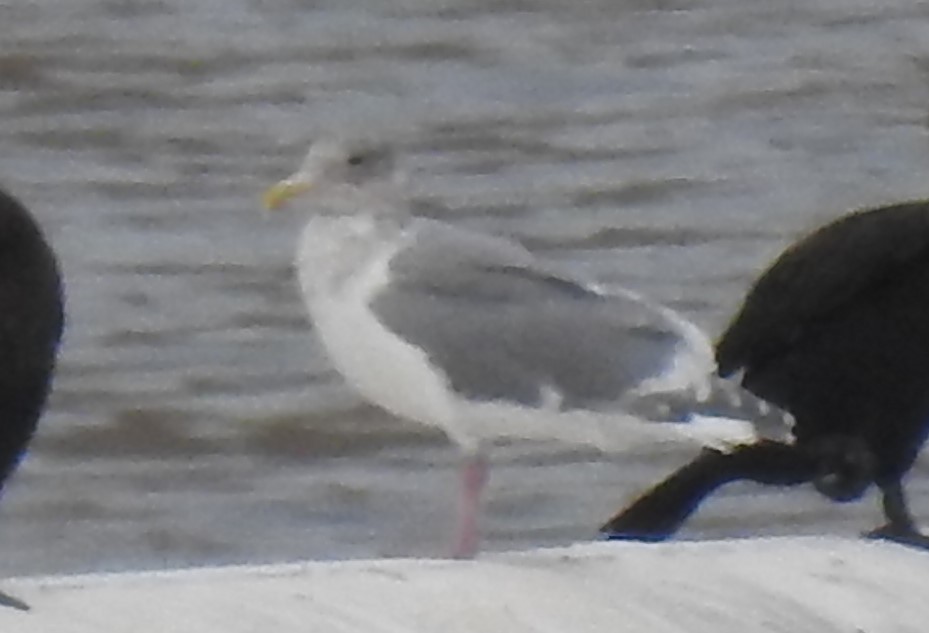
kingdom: Animalia
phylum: Chordata
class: Aves
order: Charadriiformes
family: Laridae
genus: Larus
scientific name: Larus glaucescens
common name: Glaucous-winged gull
